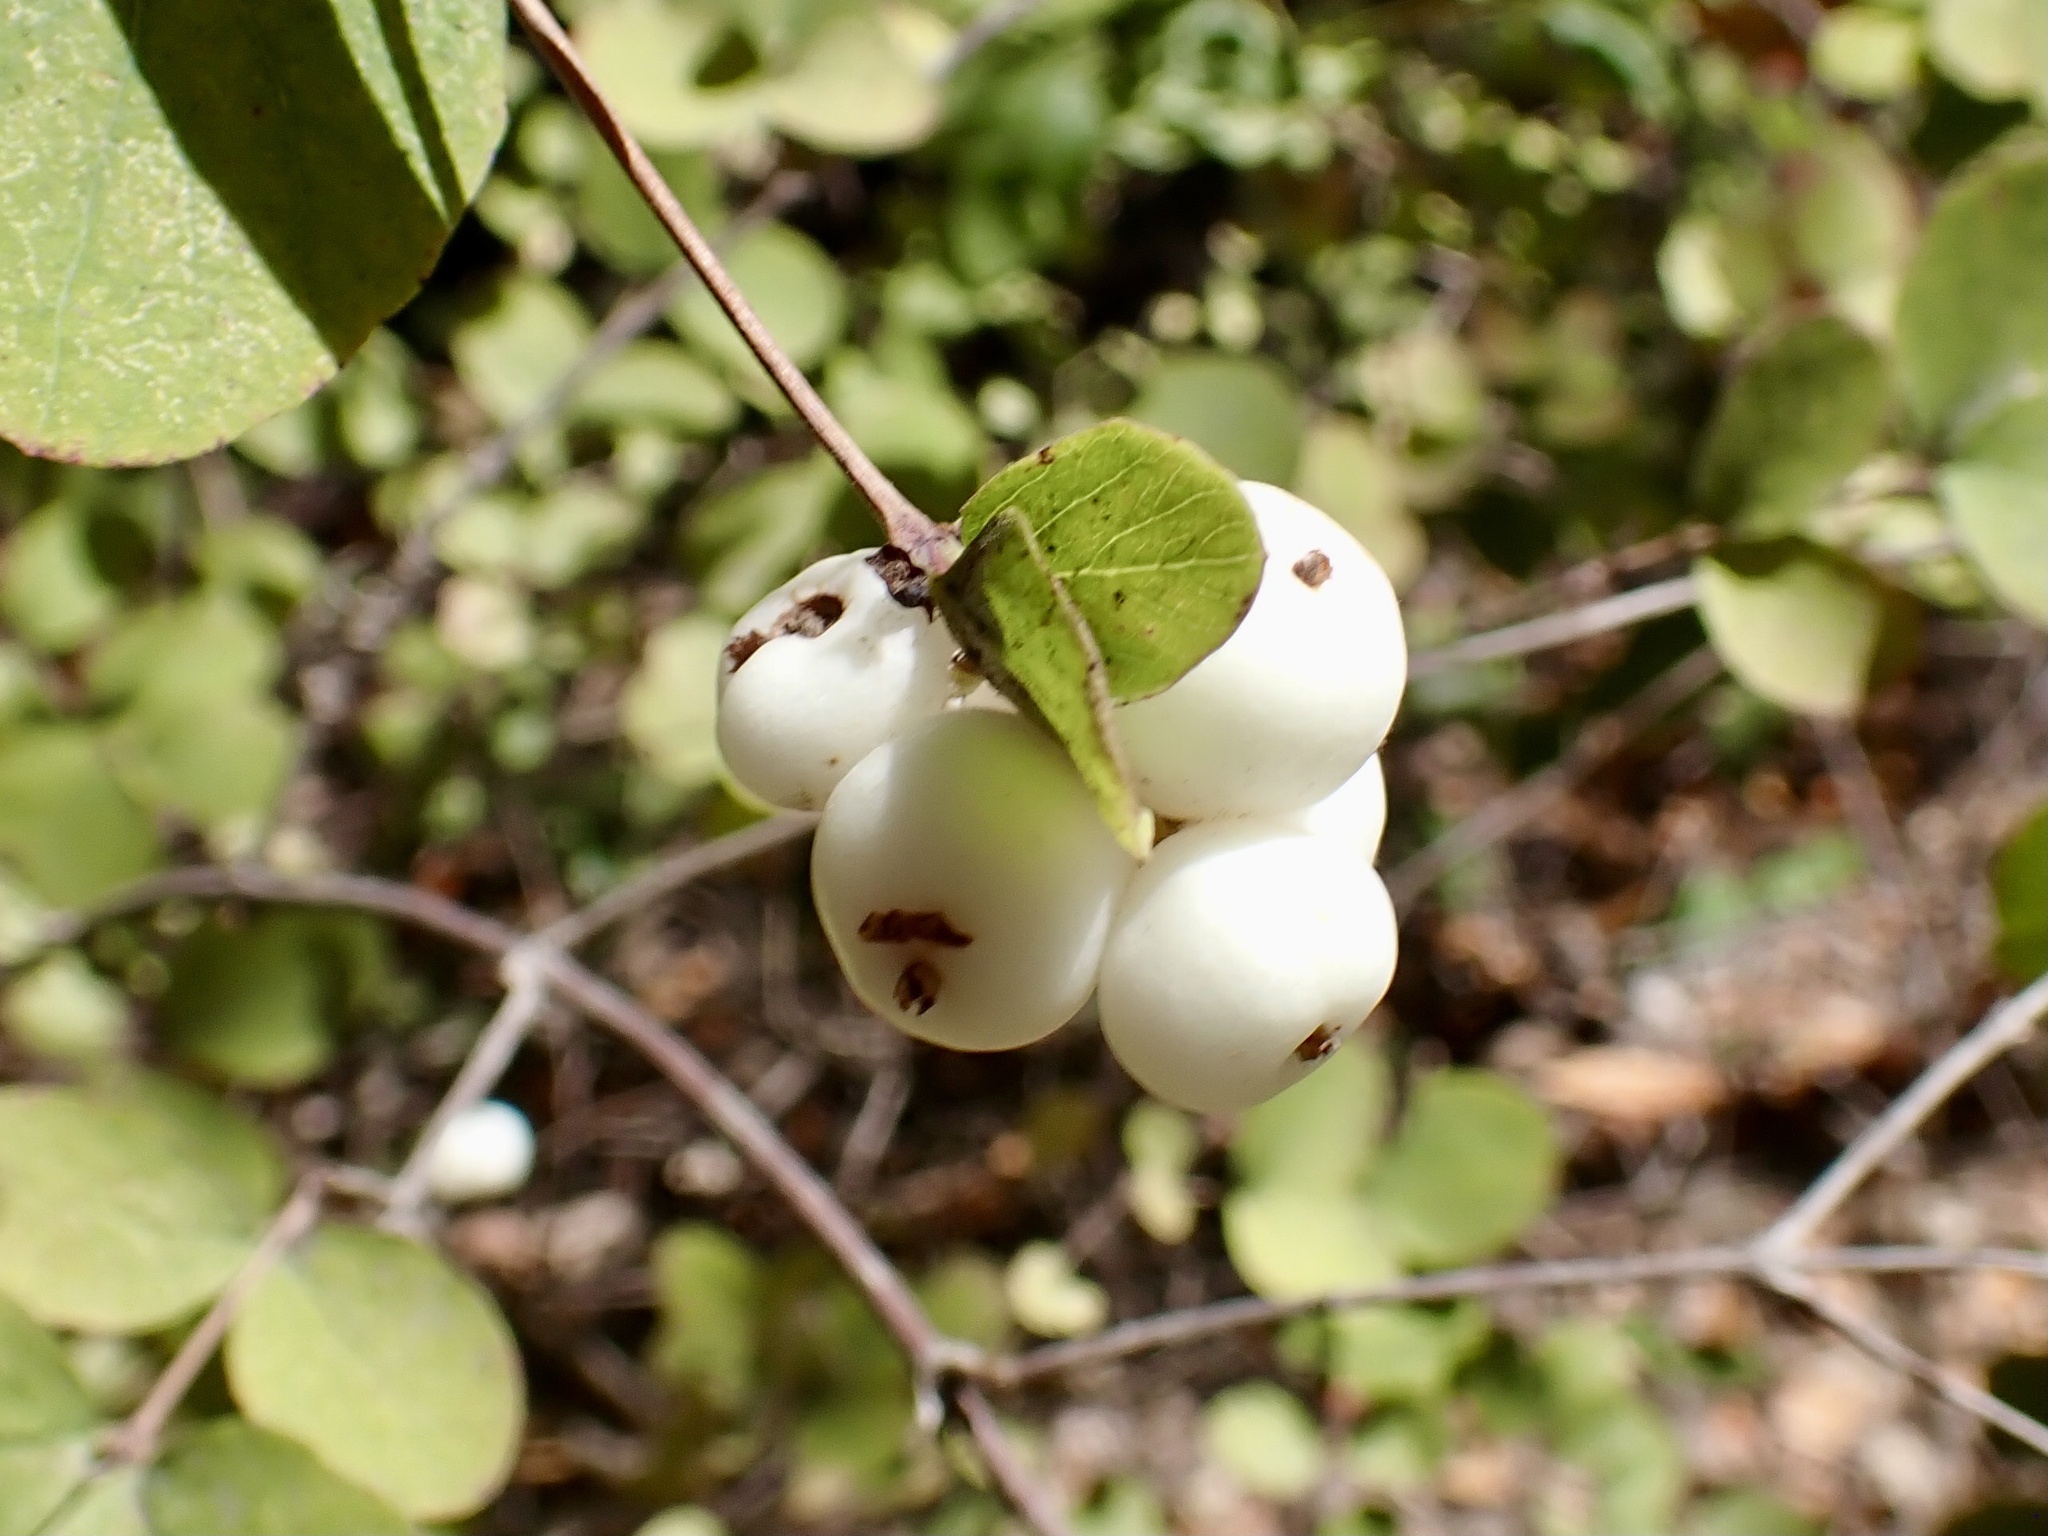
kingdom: Plantae
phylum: Tracheophyta
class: Magnoliopsida
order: Dipsacales
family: Caprifoliaceae
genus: Symphoricarpos
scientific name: Symphoricarpos albus
